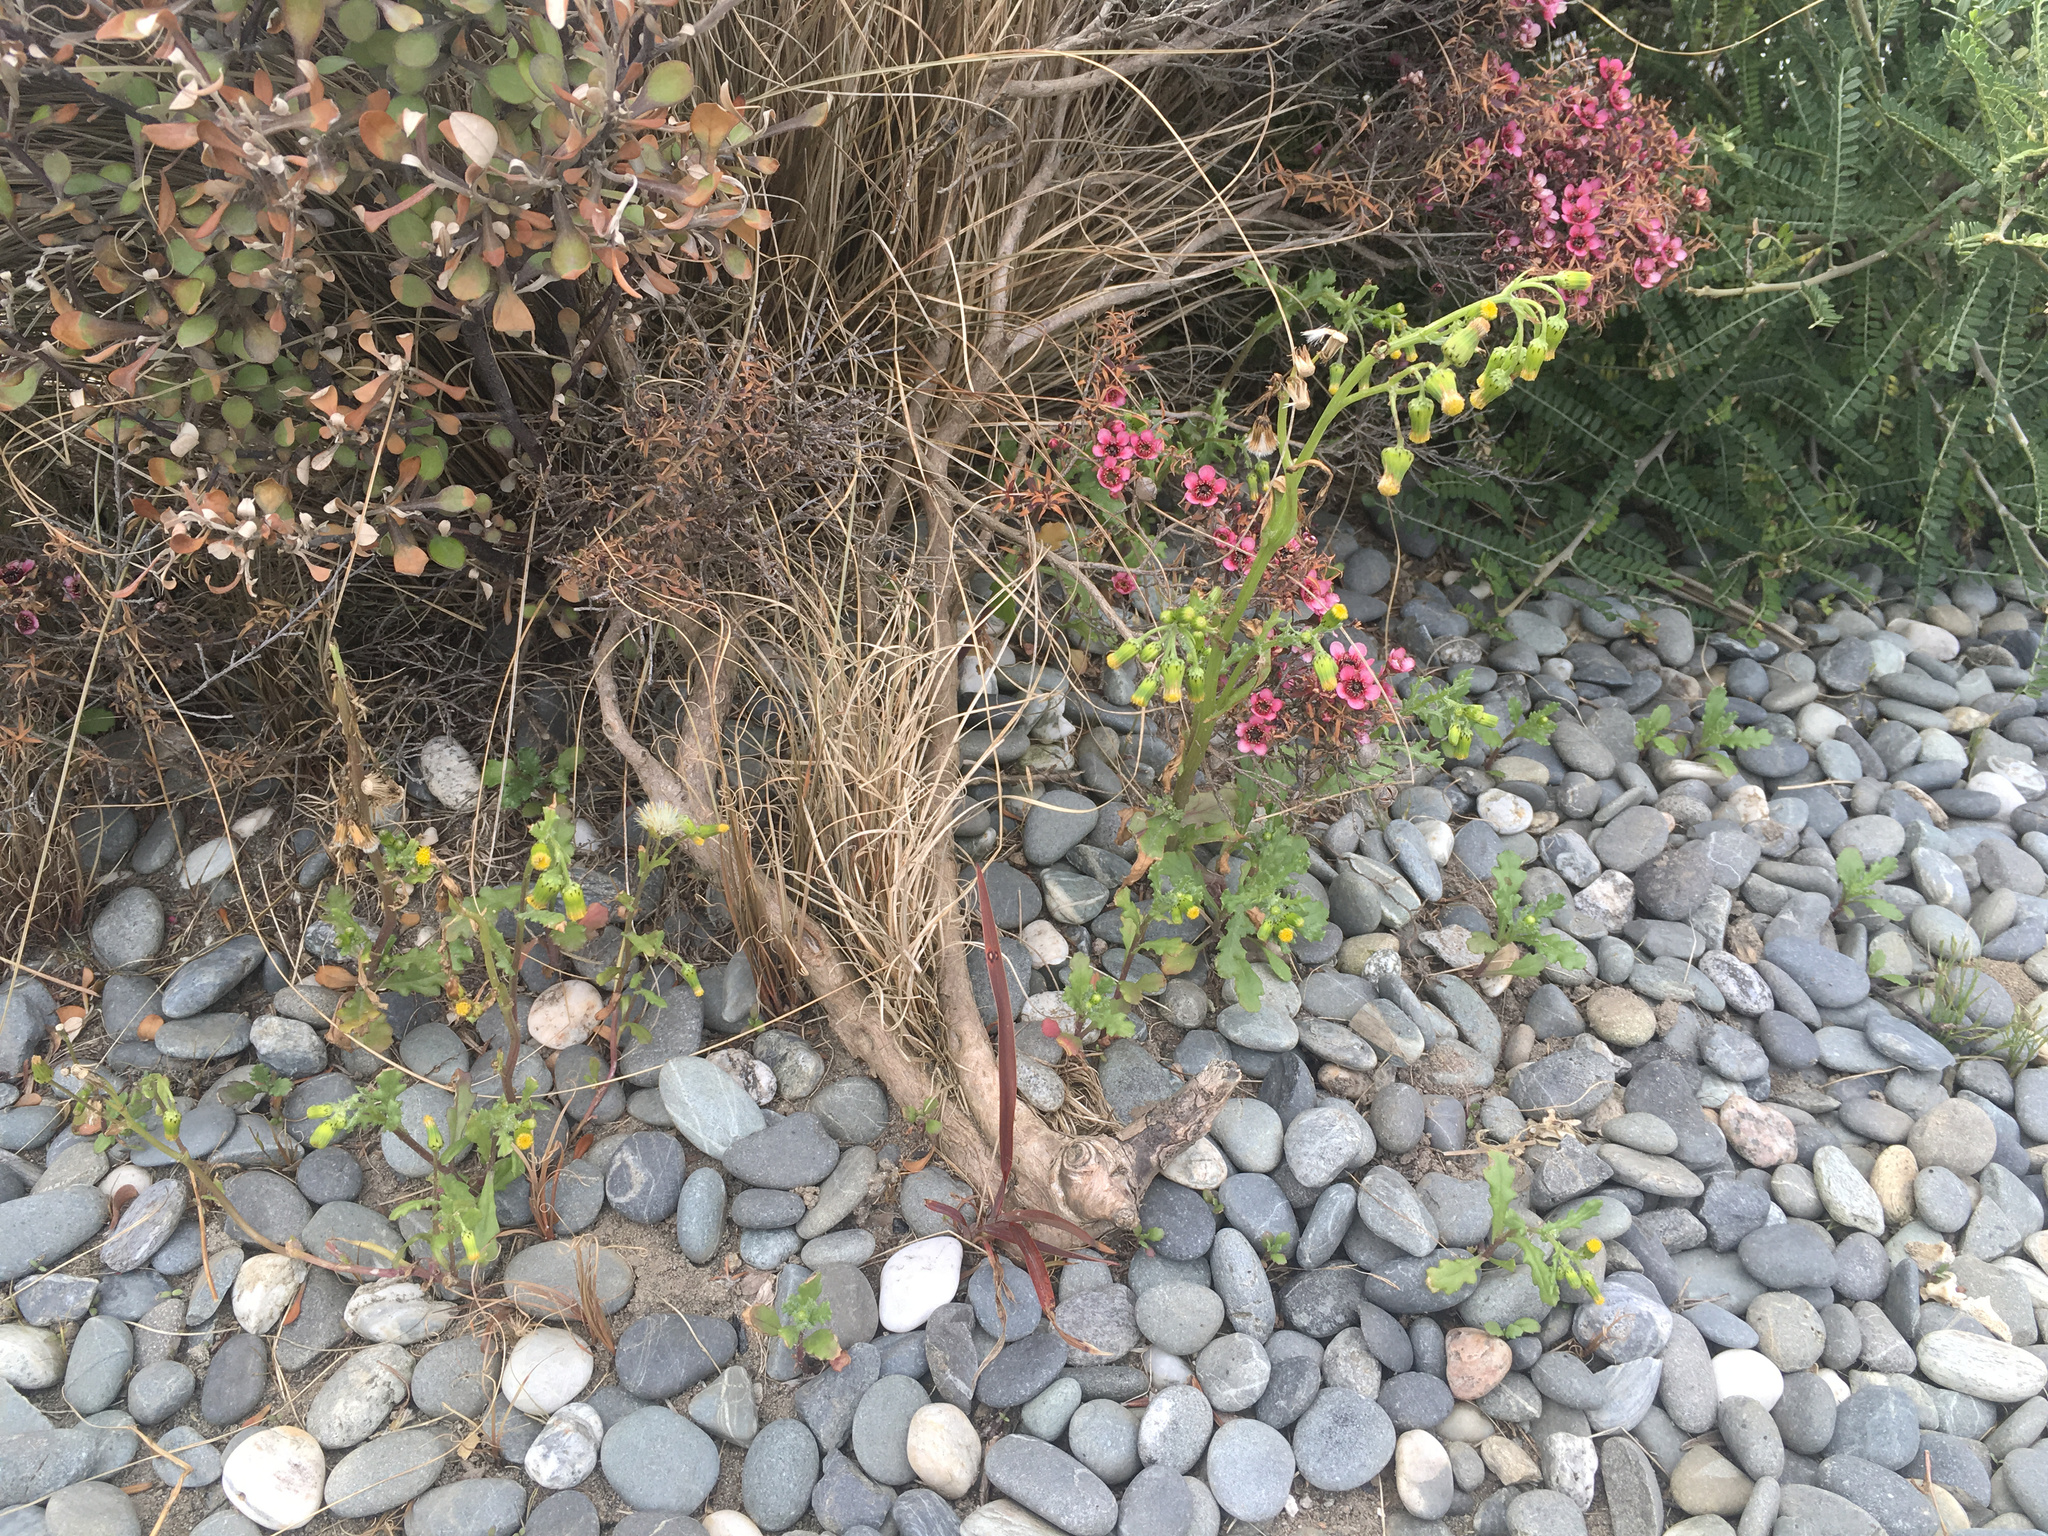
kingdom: Plantae
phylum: Tracheophyta
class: Magnoliopsida
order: Asterales
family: Asteraceae
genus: Senecio
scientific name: Senecio vulgaris
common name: Old-man-in-the-spring
